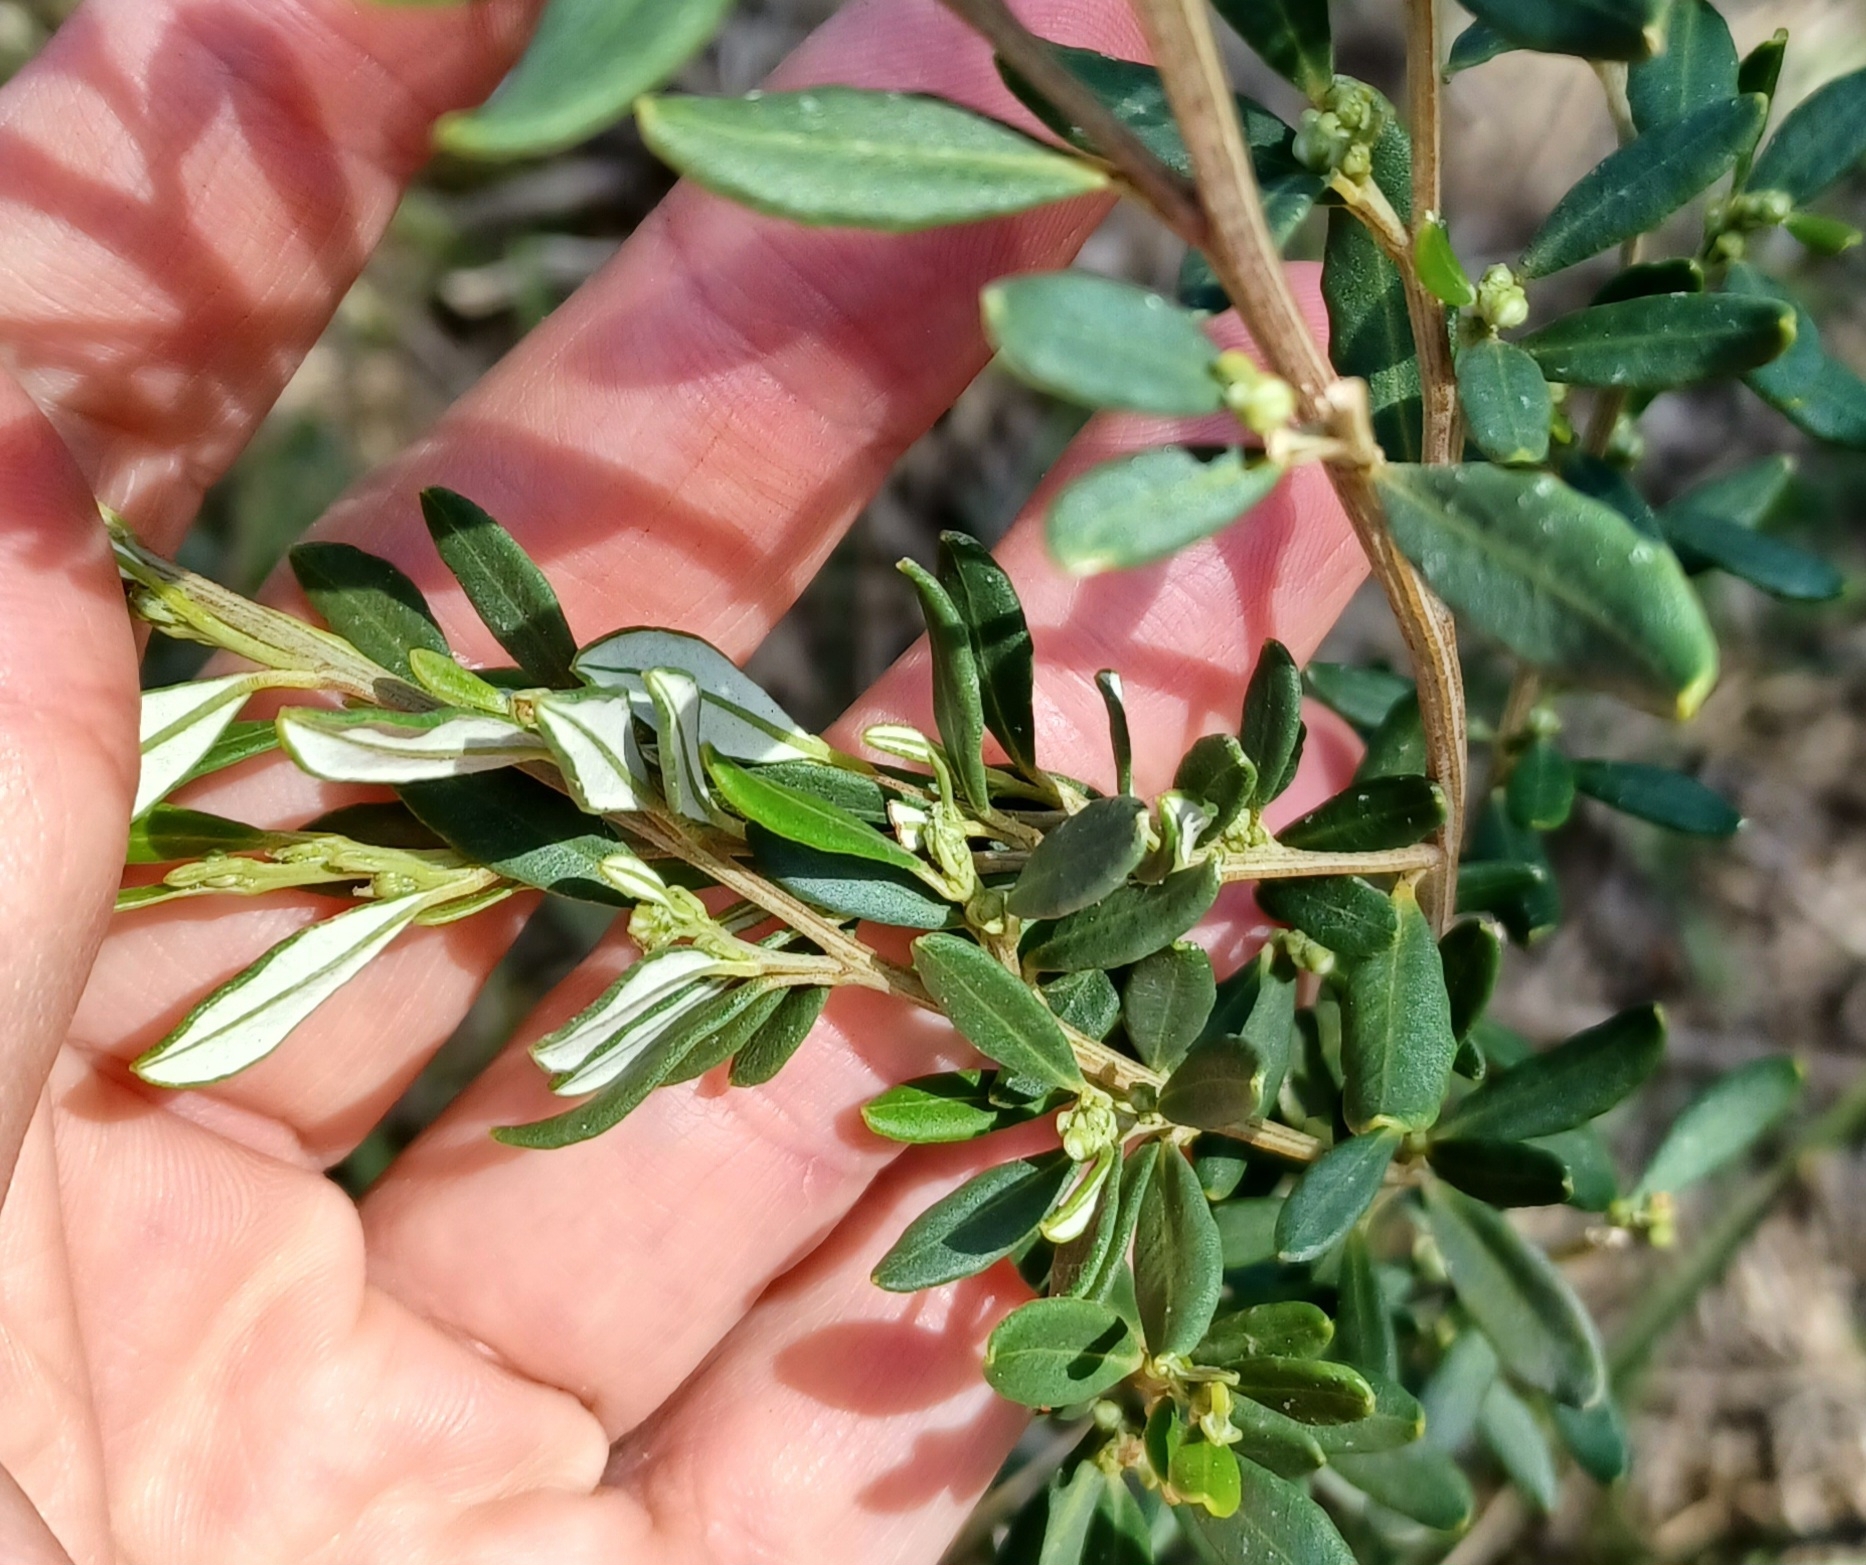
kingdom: Plantae
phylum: Tracheophyta
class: Magnoliopsida
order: Malpighiales
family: Euphorbiaceae
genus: Beyeria
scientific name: Beyeria lechenaultii
